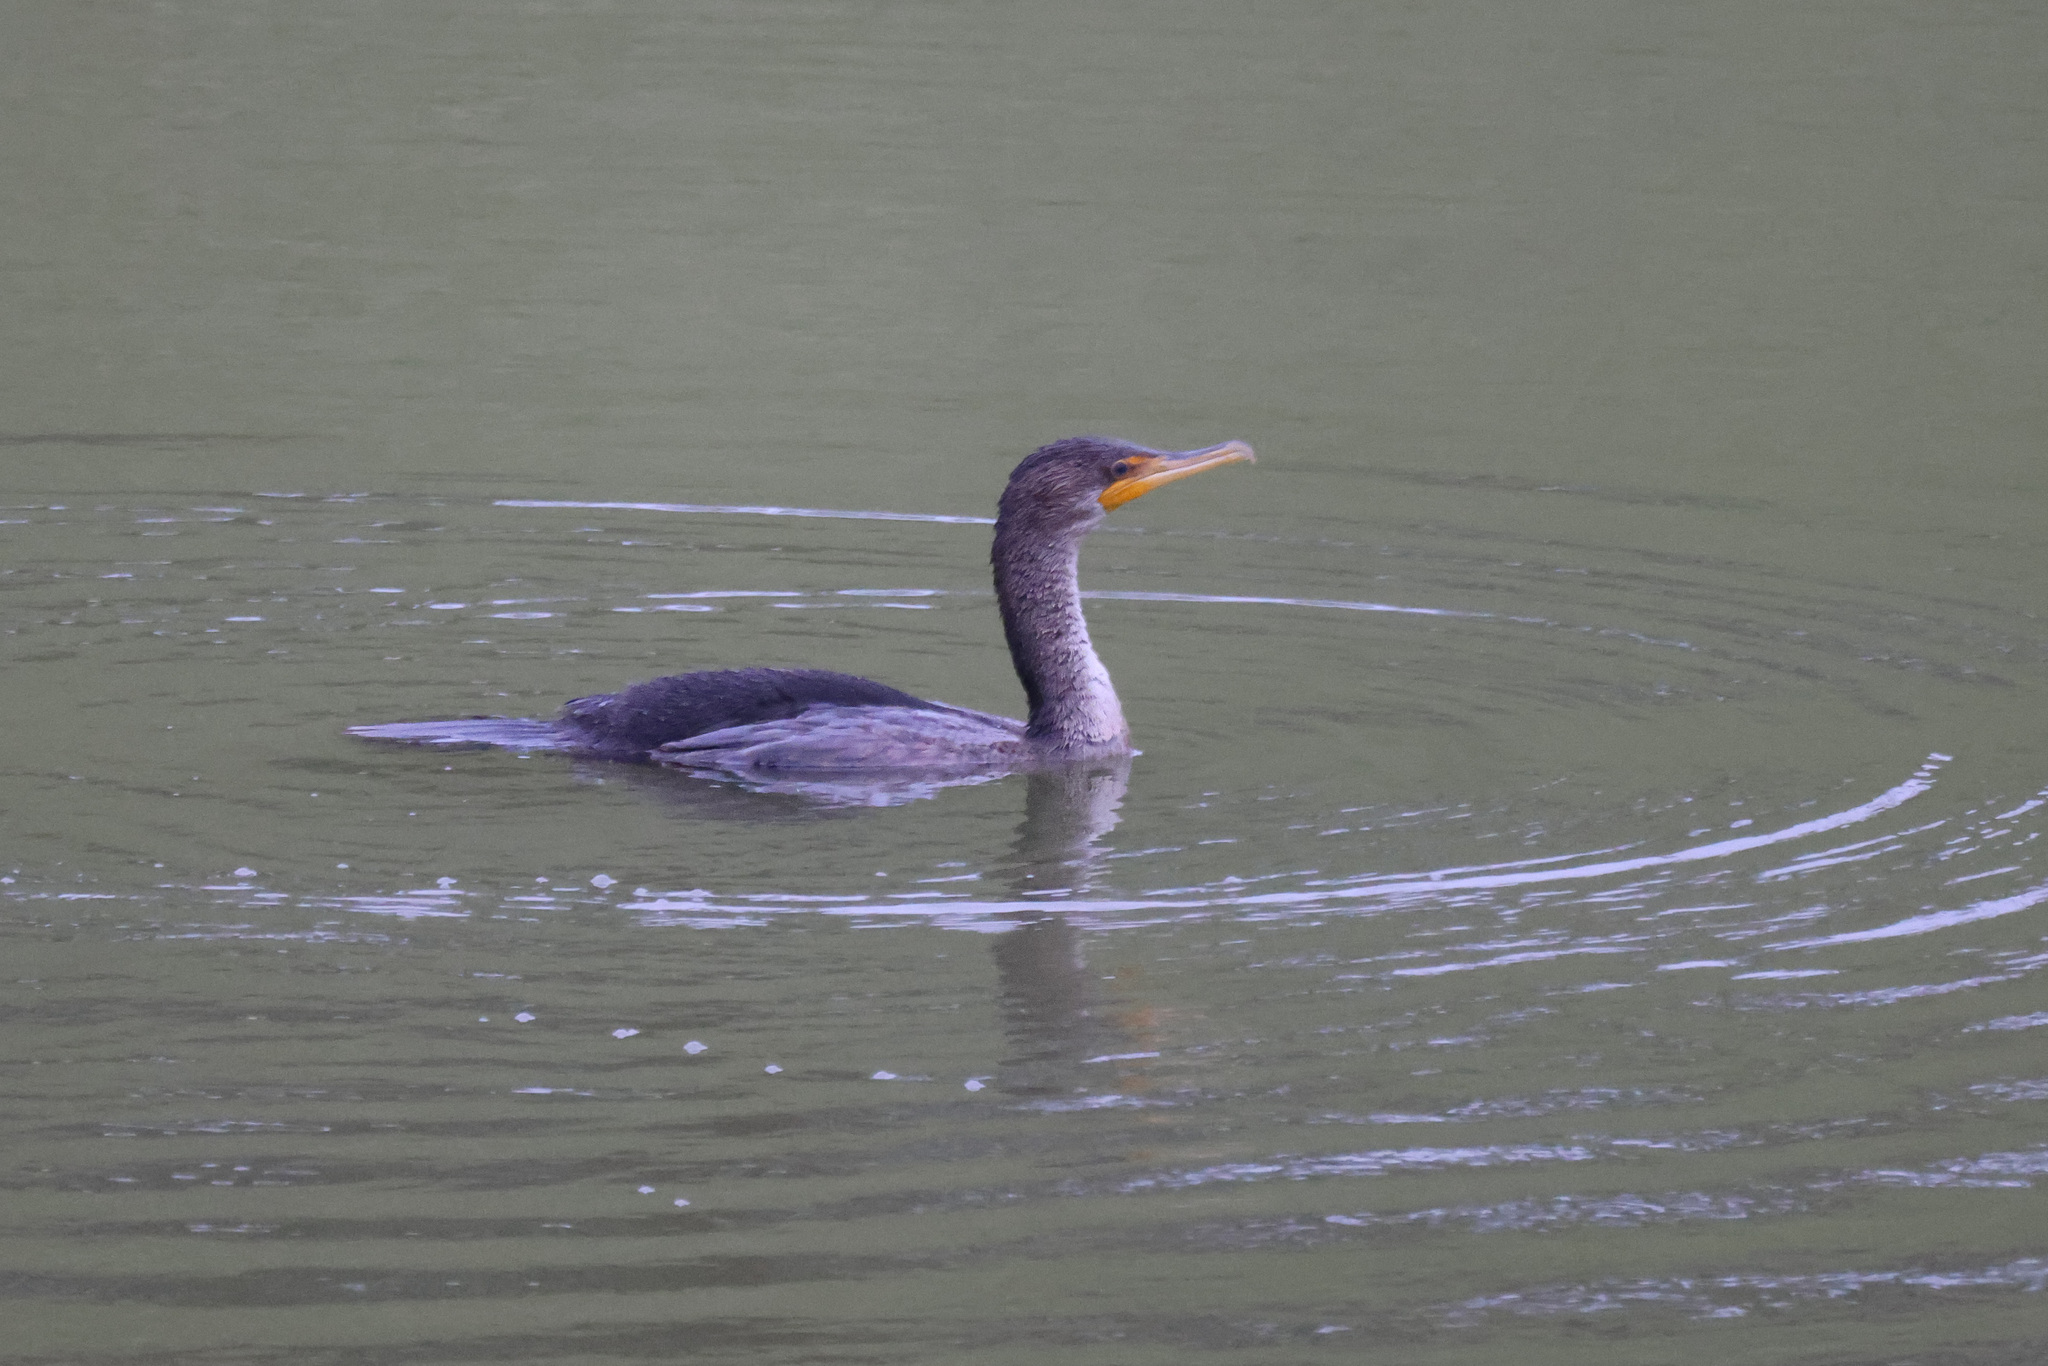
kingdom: Animalia
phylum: Chordata
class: Aves
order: Suliformes
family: Phalacrocoracidae
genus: Phalacrocorax
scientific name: Phalacrocorax auritus
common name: Double-crested cormorant
